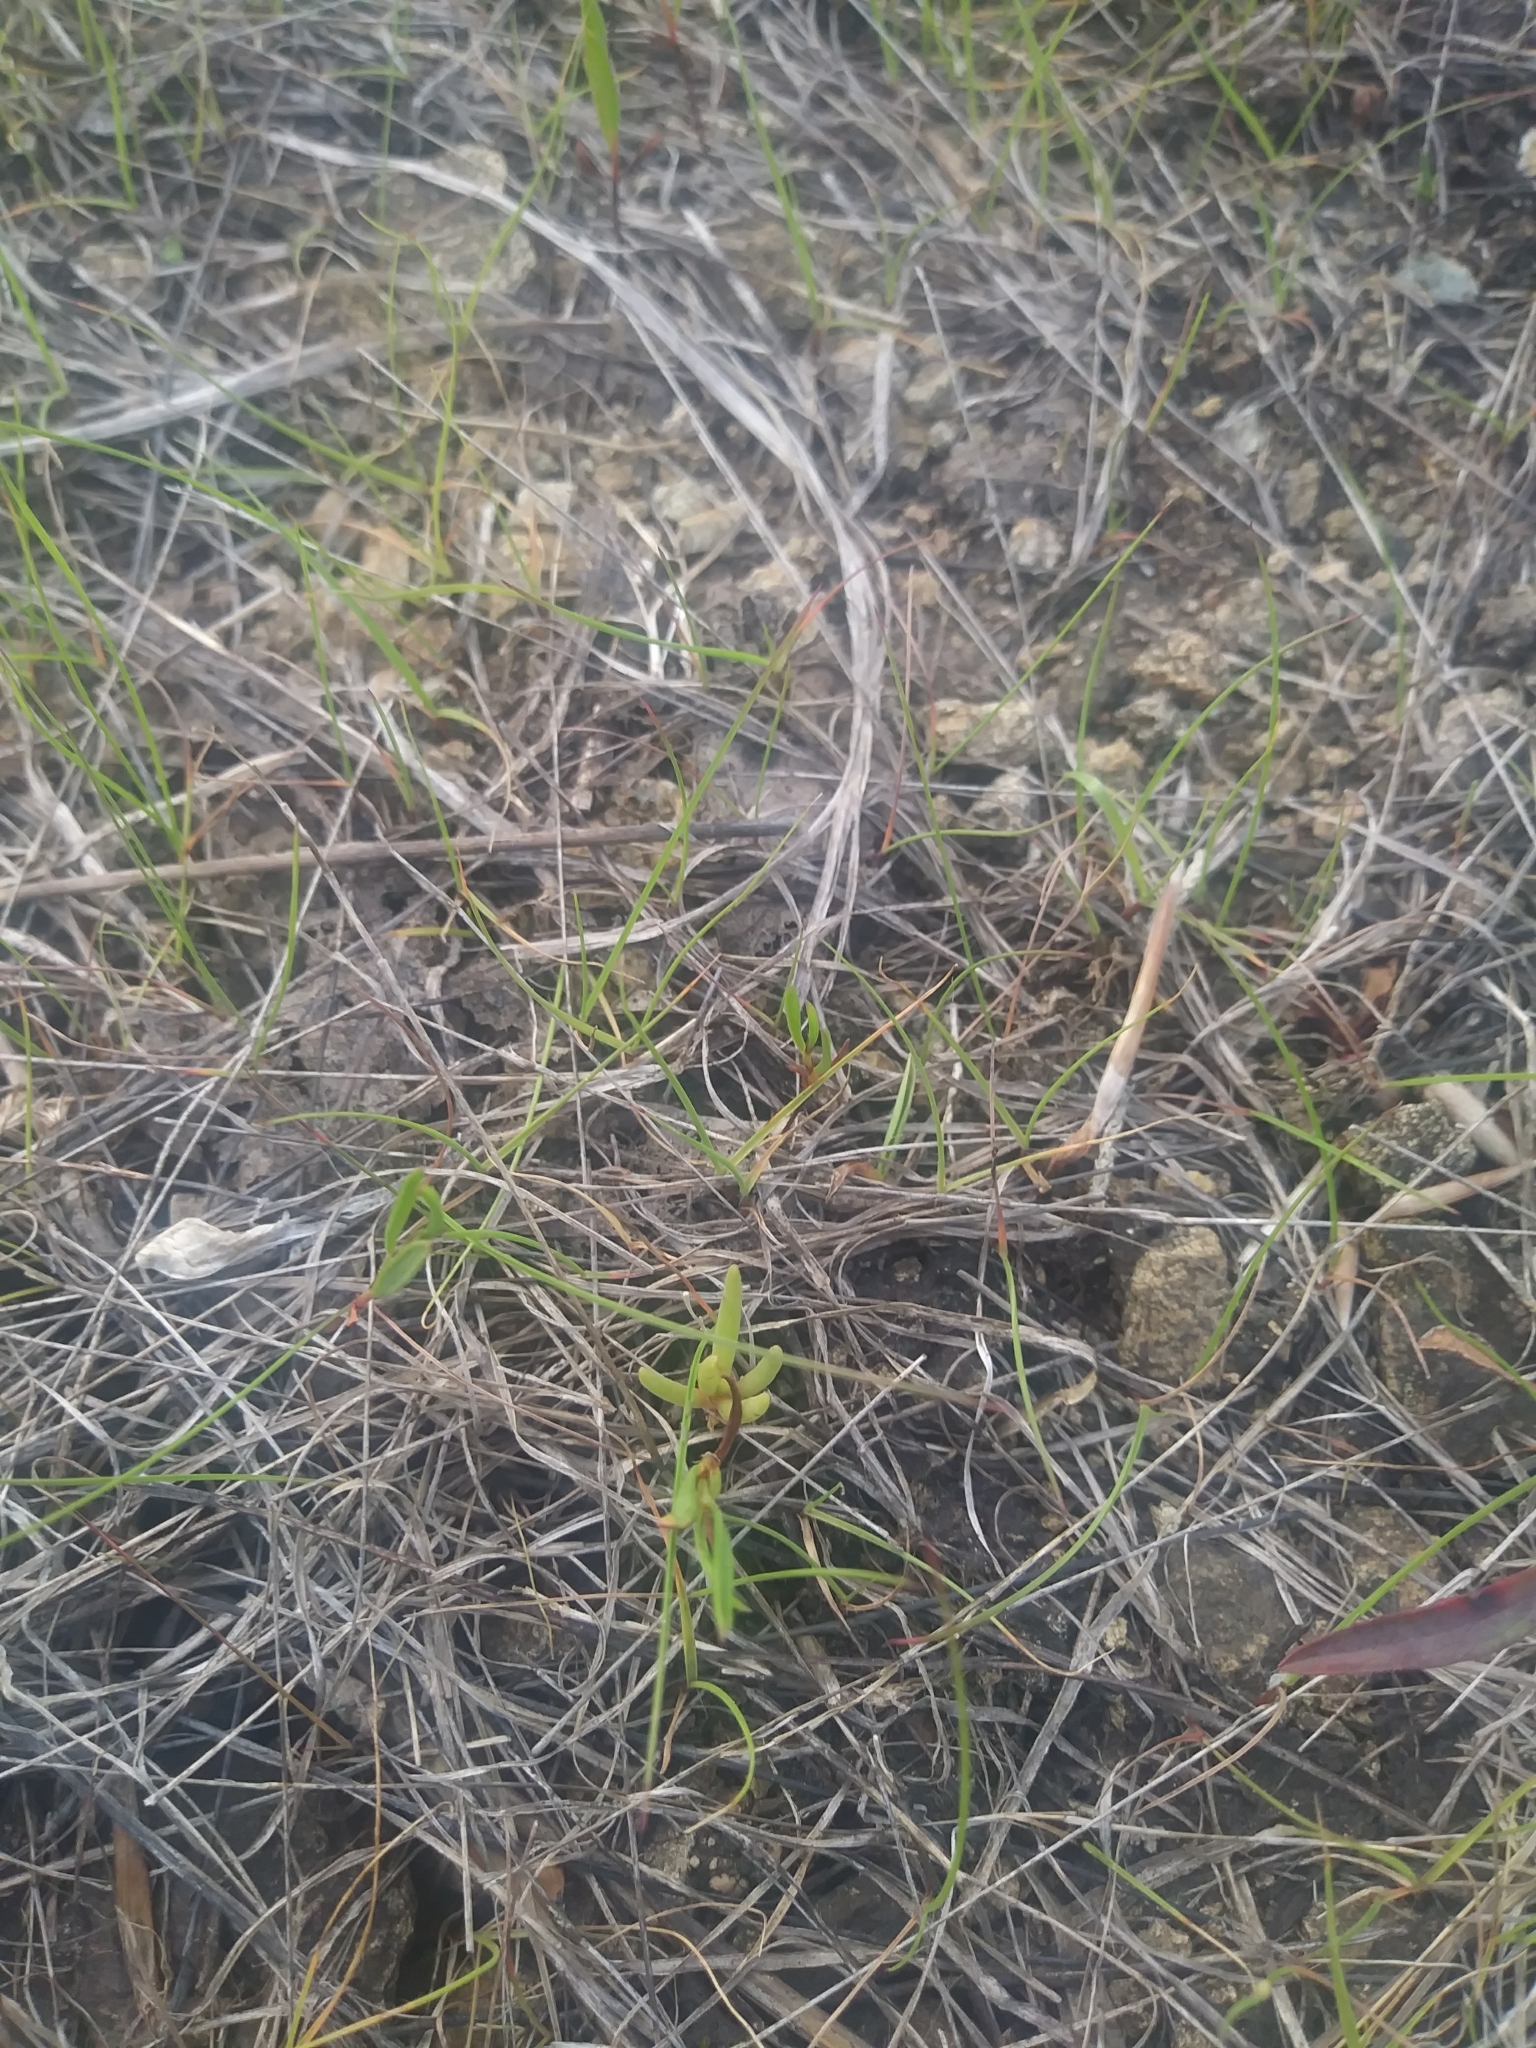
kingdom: Plantae
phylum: Tracheophyta
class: Magnoliopsida
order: Caryophyllales
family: Montiaceae
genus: Phemeranthus
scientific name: Phemeranthus teretifolius
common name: Quill fameflower
